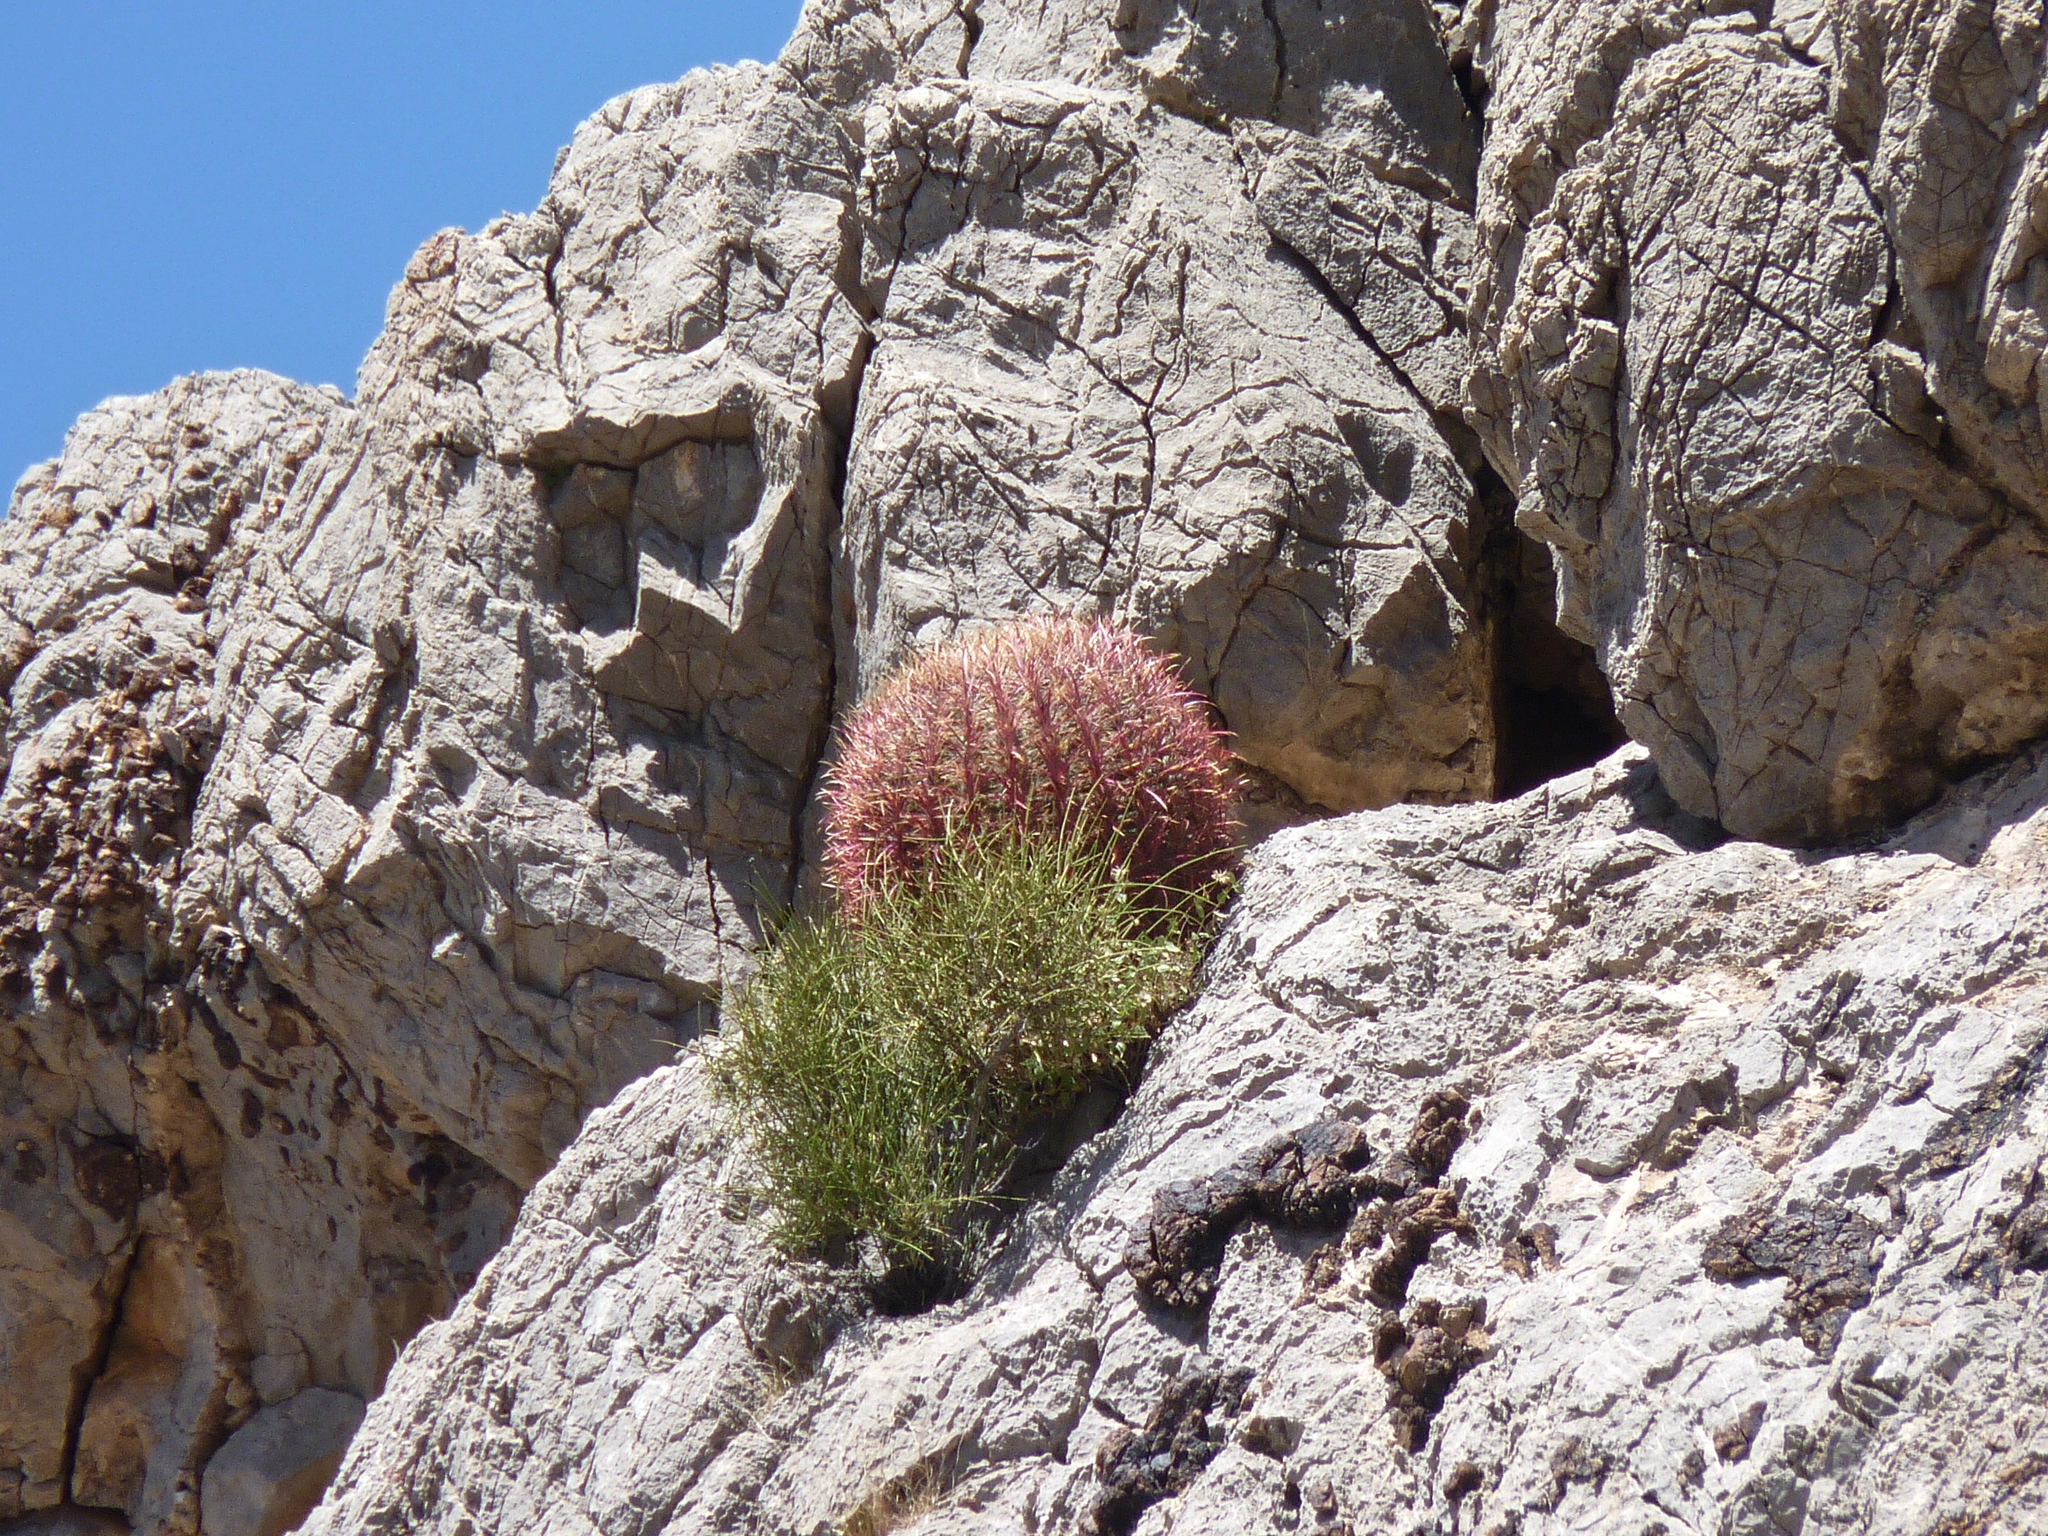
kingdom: Plantae
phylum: Tracheophyta
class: Magnoliopsida
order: Caryophyllales
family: Cactaceae
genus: Ferocactus
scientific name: Ferocactus cylindraceus
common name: California barrel cactus
